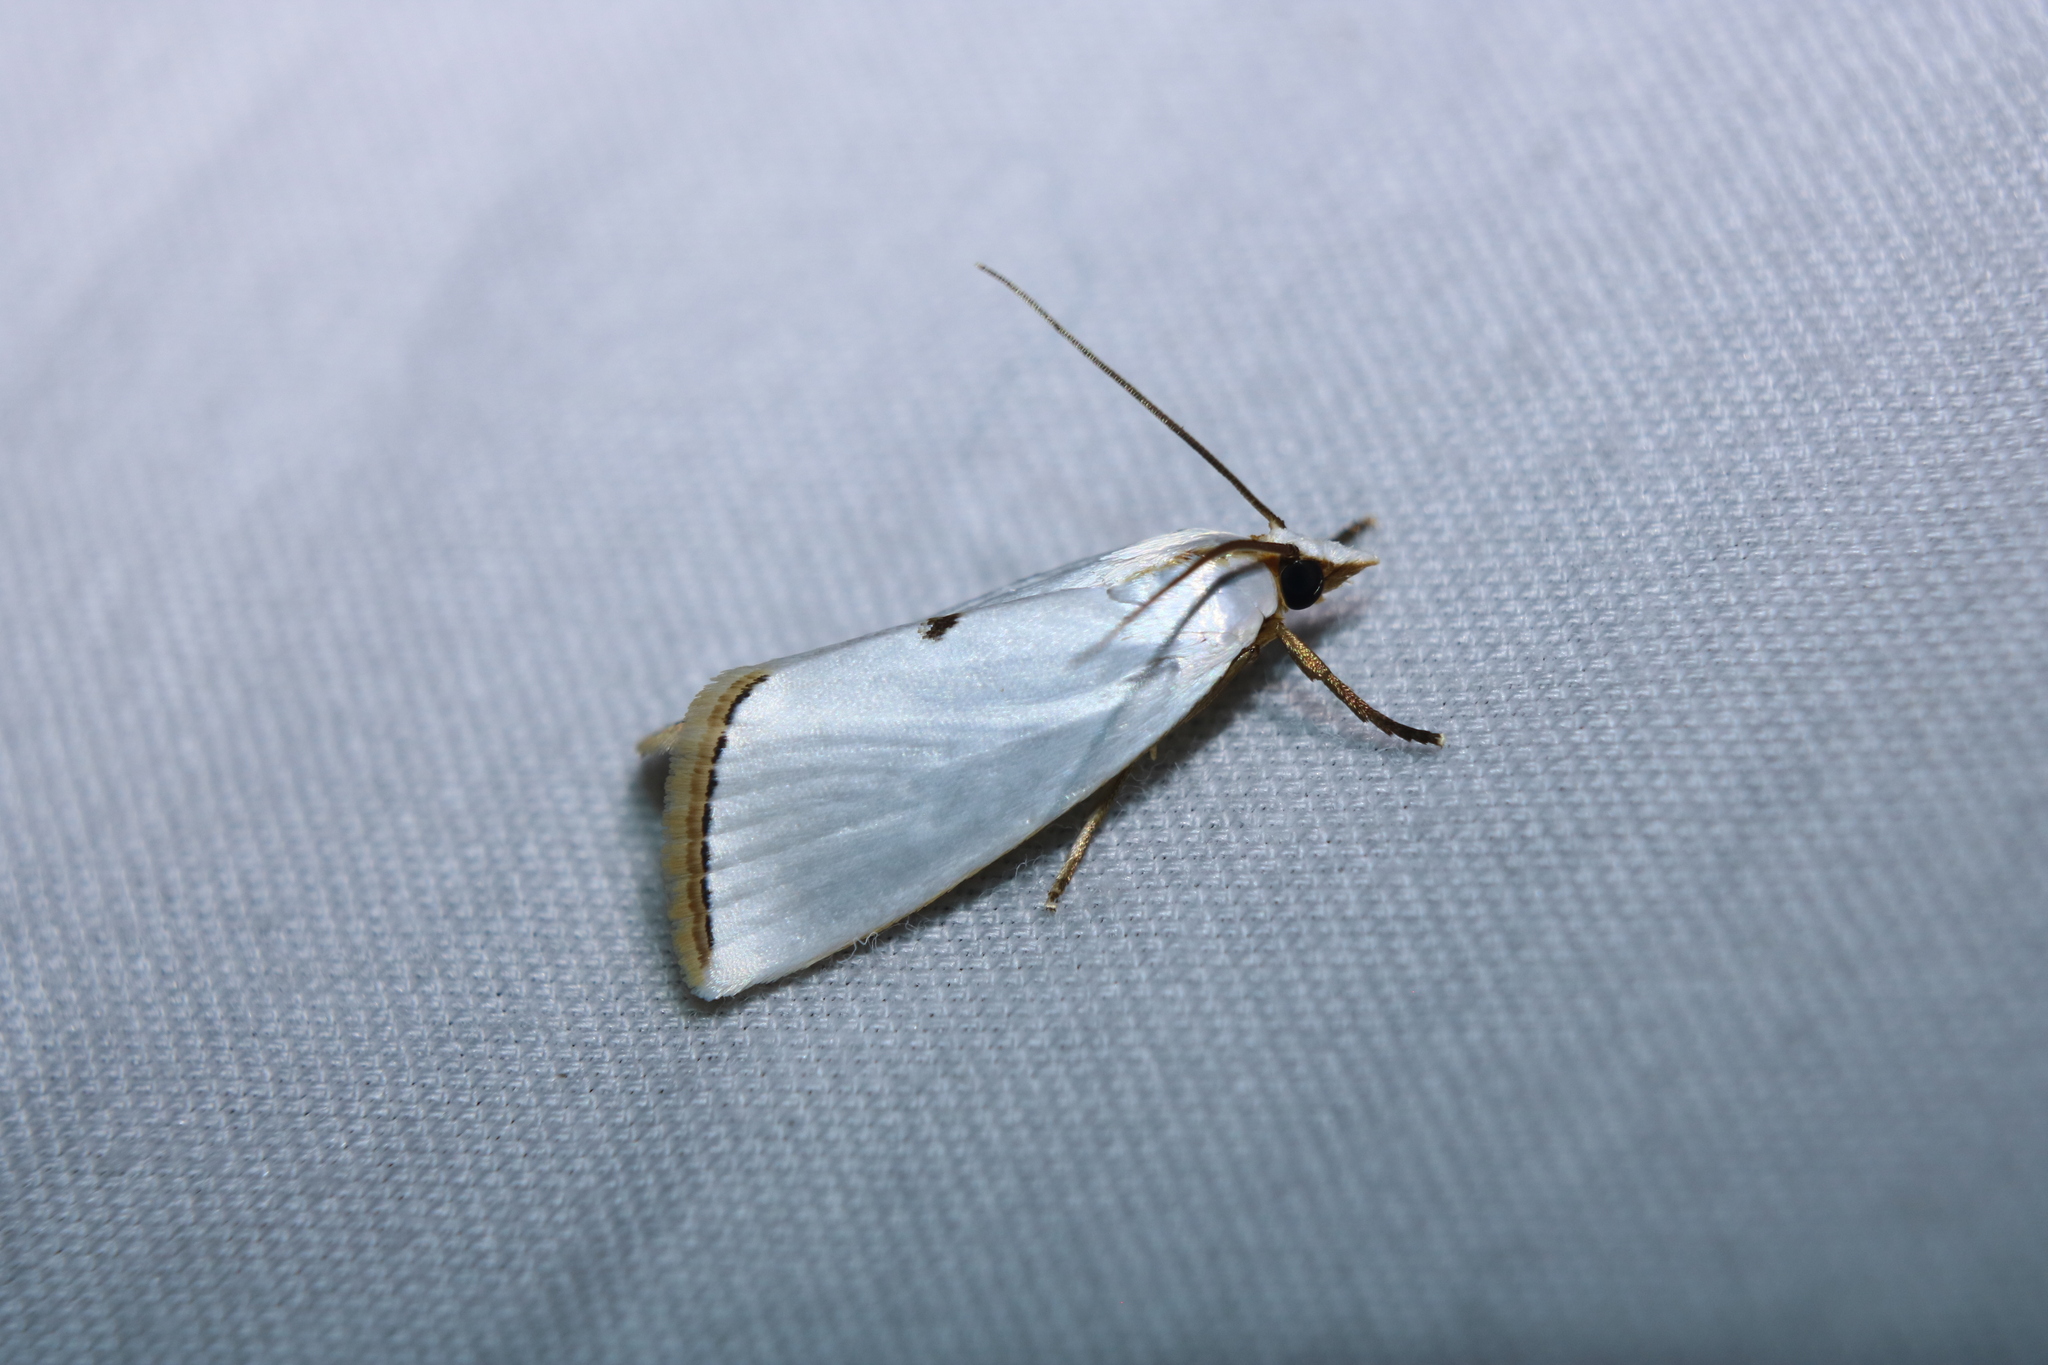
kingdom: Animalia
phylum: Arthropoda
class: Insecta
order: Lepidoptera
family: Crambidae
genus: Argyria
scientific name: Argyria nivalis
